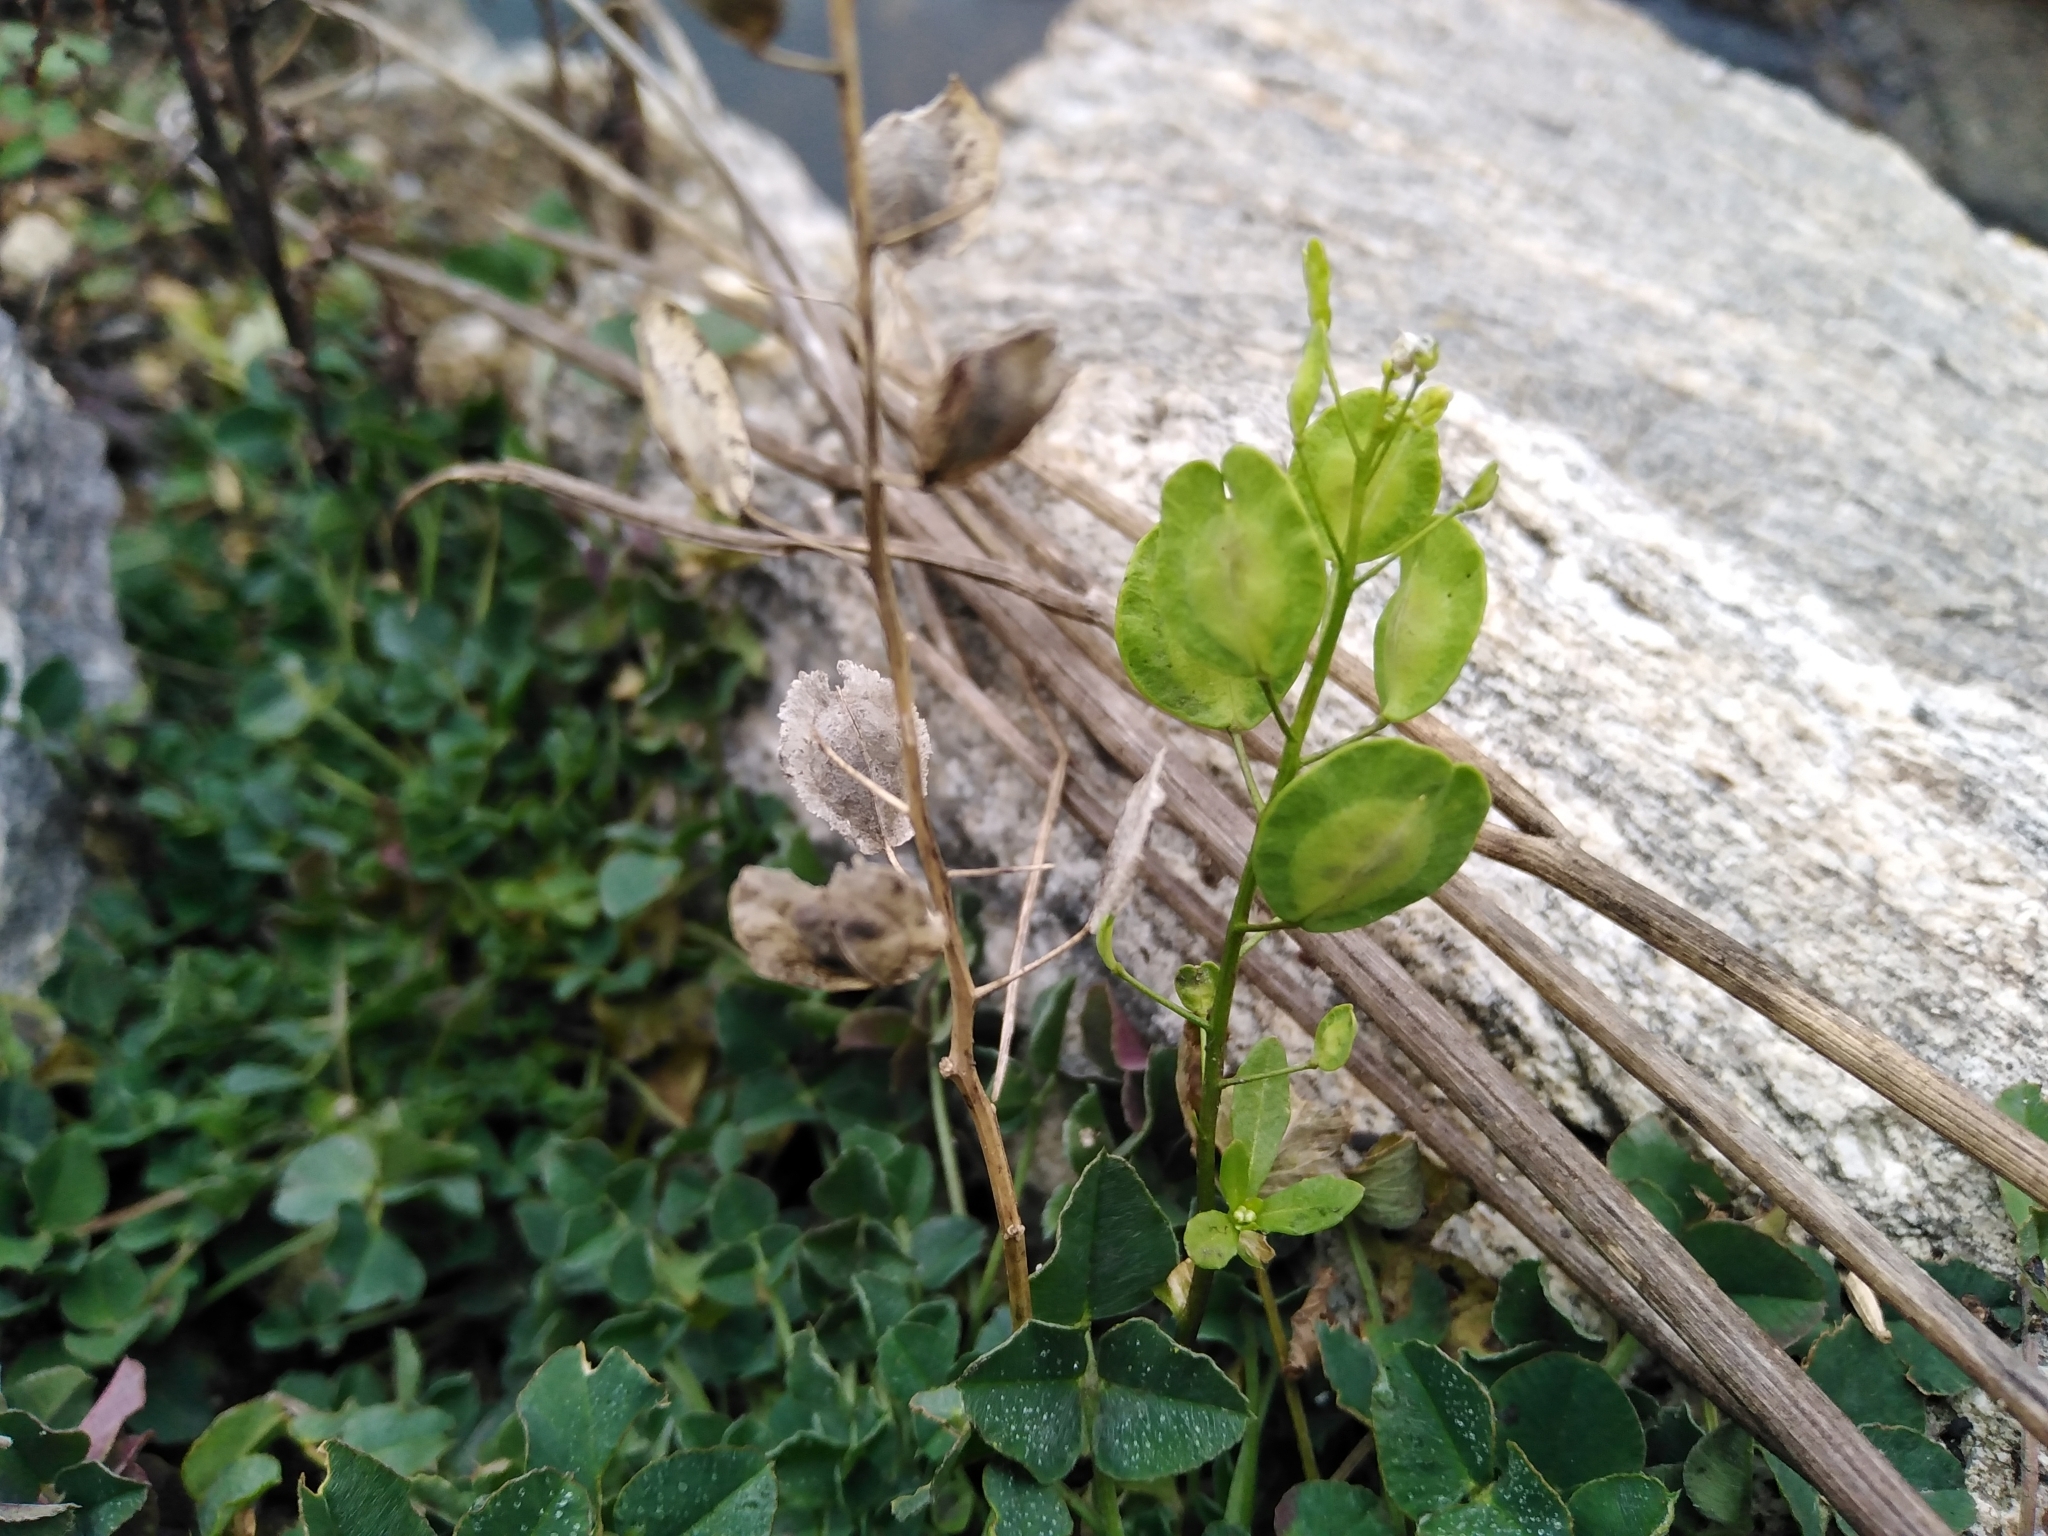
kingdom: Plantae
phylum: Tracheophyta
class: Magnoliopsida
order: Brassicales
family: Brassicaceae
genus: Thlaspi
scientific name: Thlaspi arvense
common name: Field pennycress
